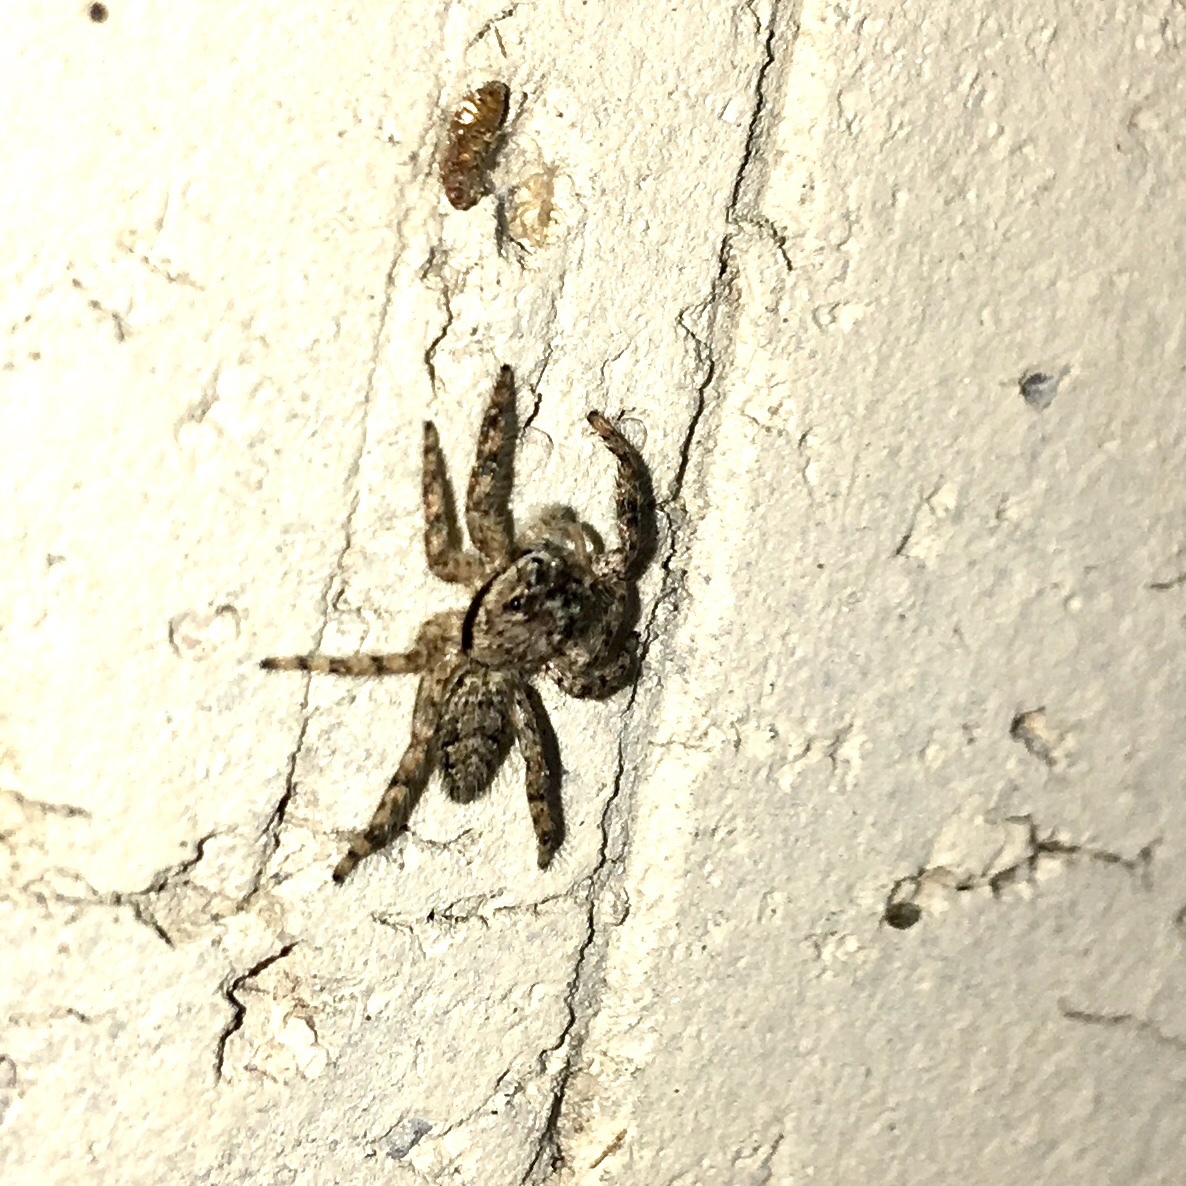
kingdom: Animalia
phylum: Arthropoda
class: Arachnida
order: Araneae
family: Salticidae
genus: Platycryptus
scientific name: Platycryptus undatus
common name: Tan jumping spider
